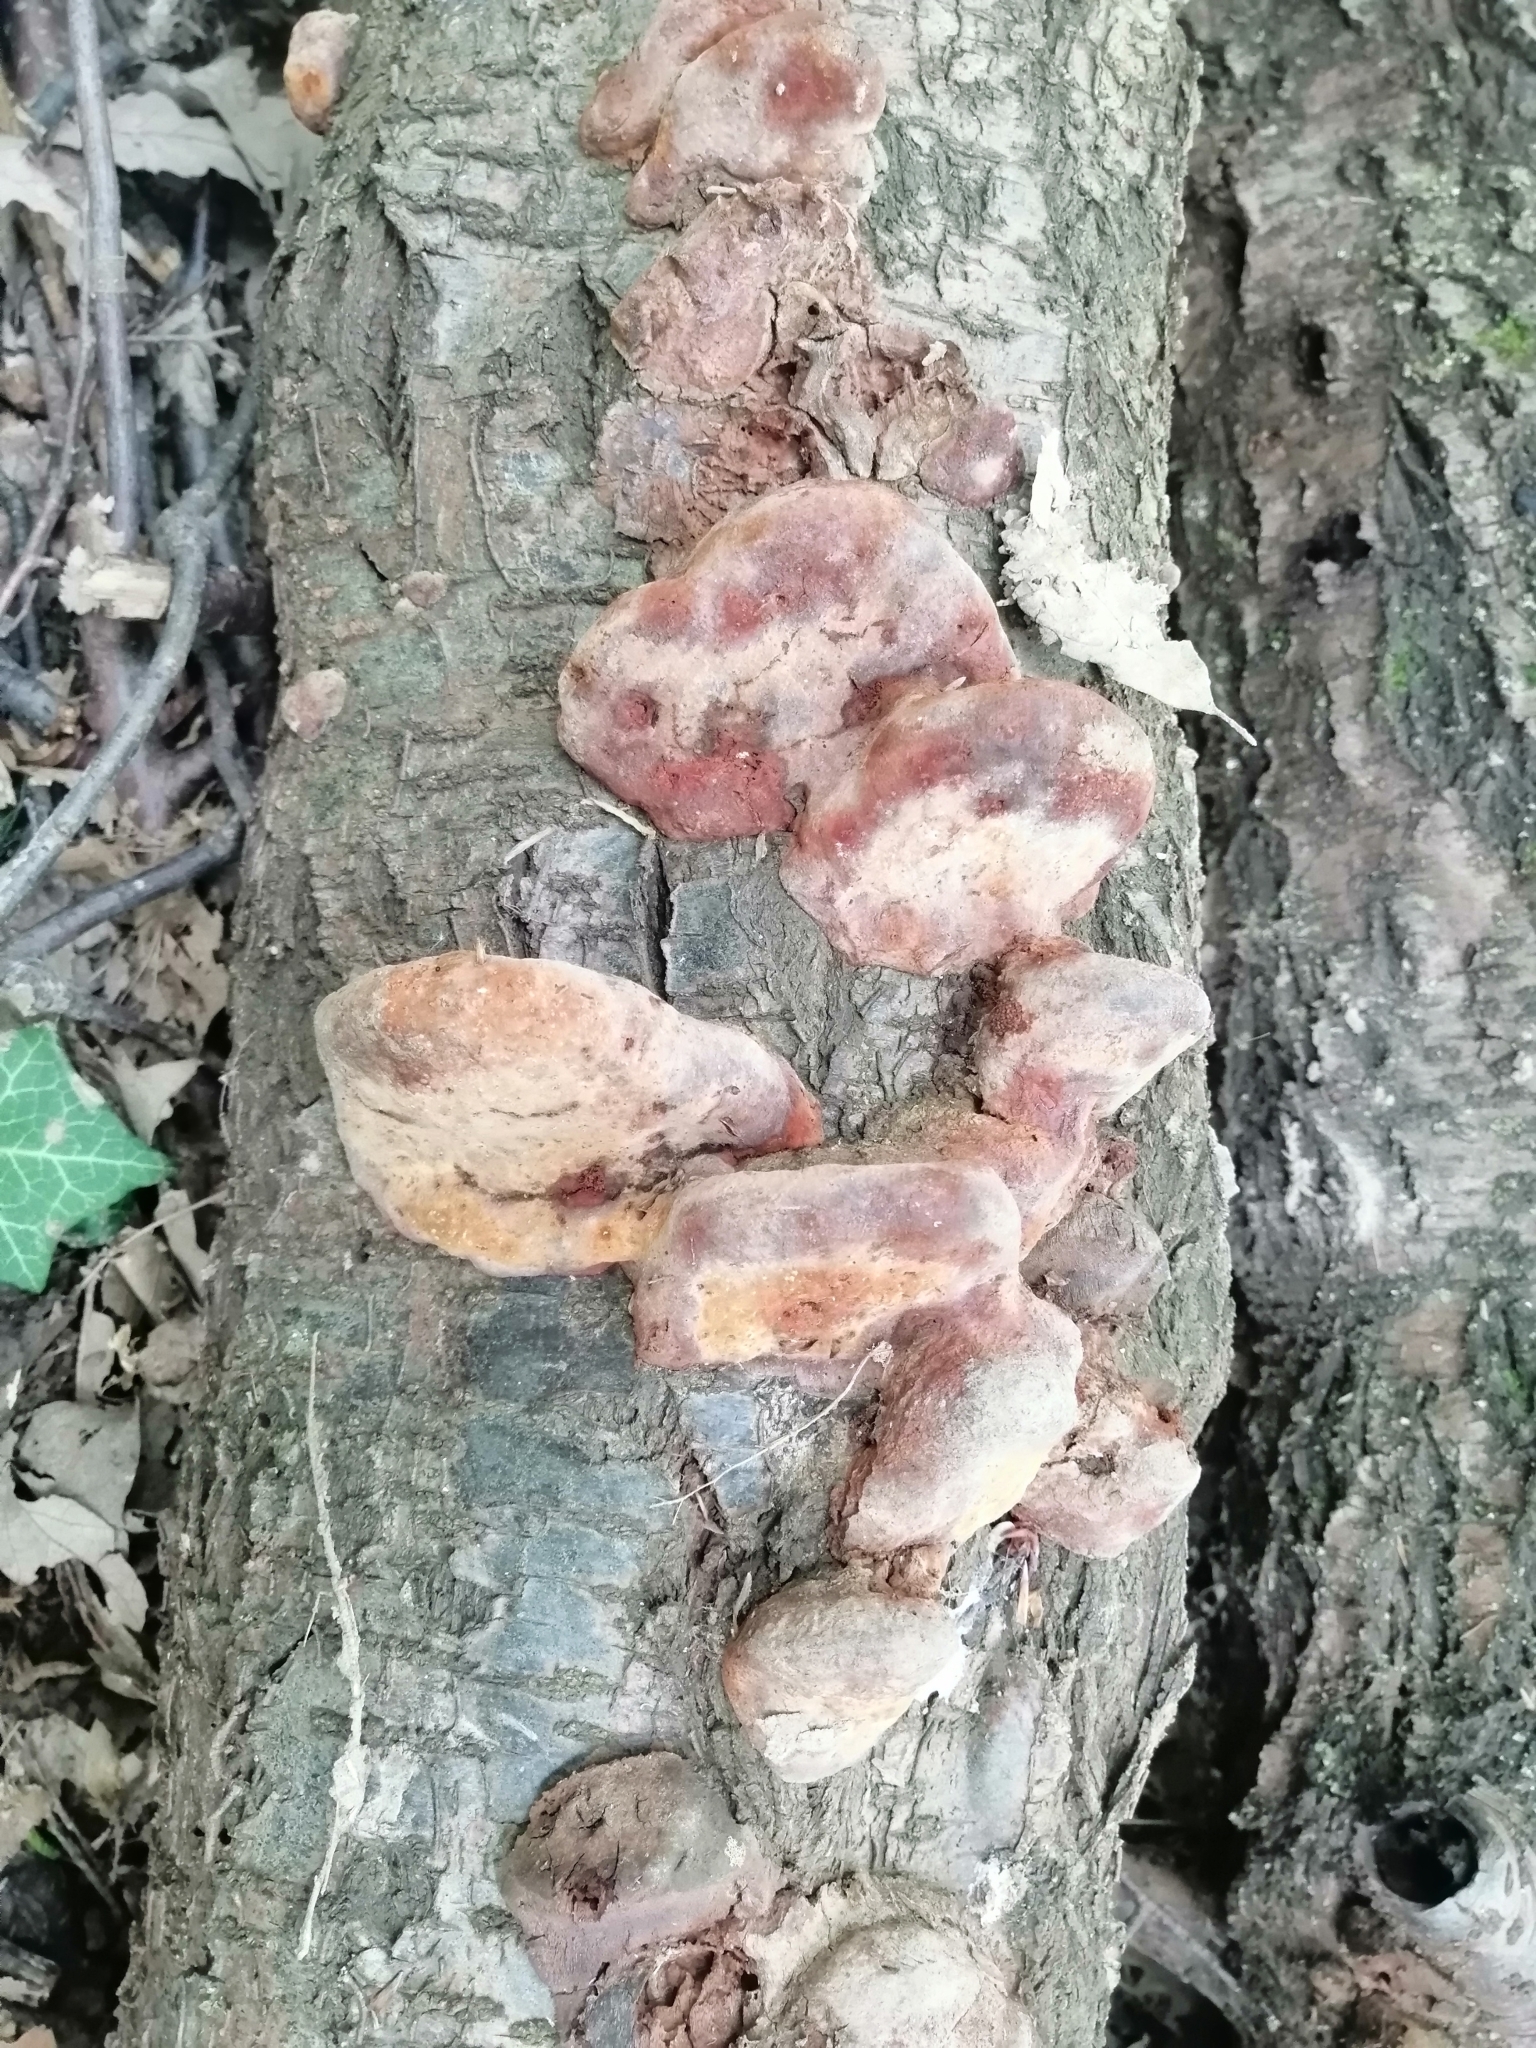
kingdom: Fungi
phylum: Basidiomycota
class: Agaricomycetes
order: Hymenochaetales
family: Hymenochaetaceae
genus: Phellinus
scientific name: Phellinus pomaceus
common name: Cushion bracket
